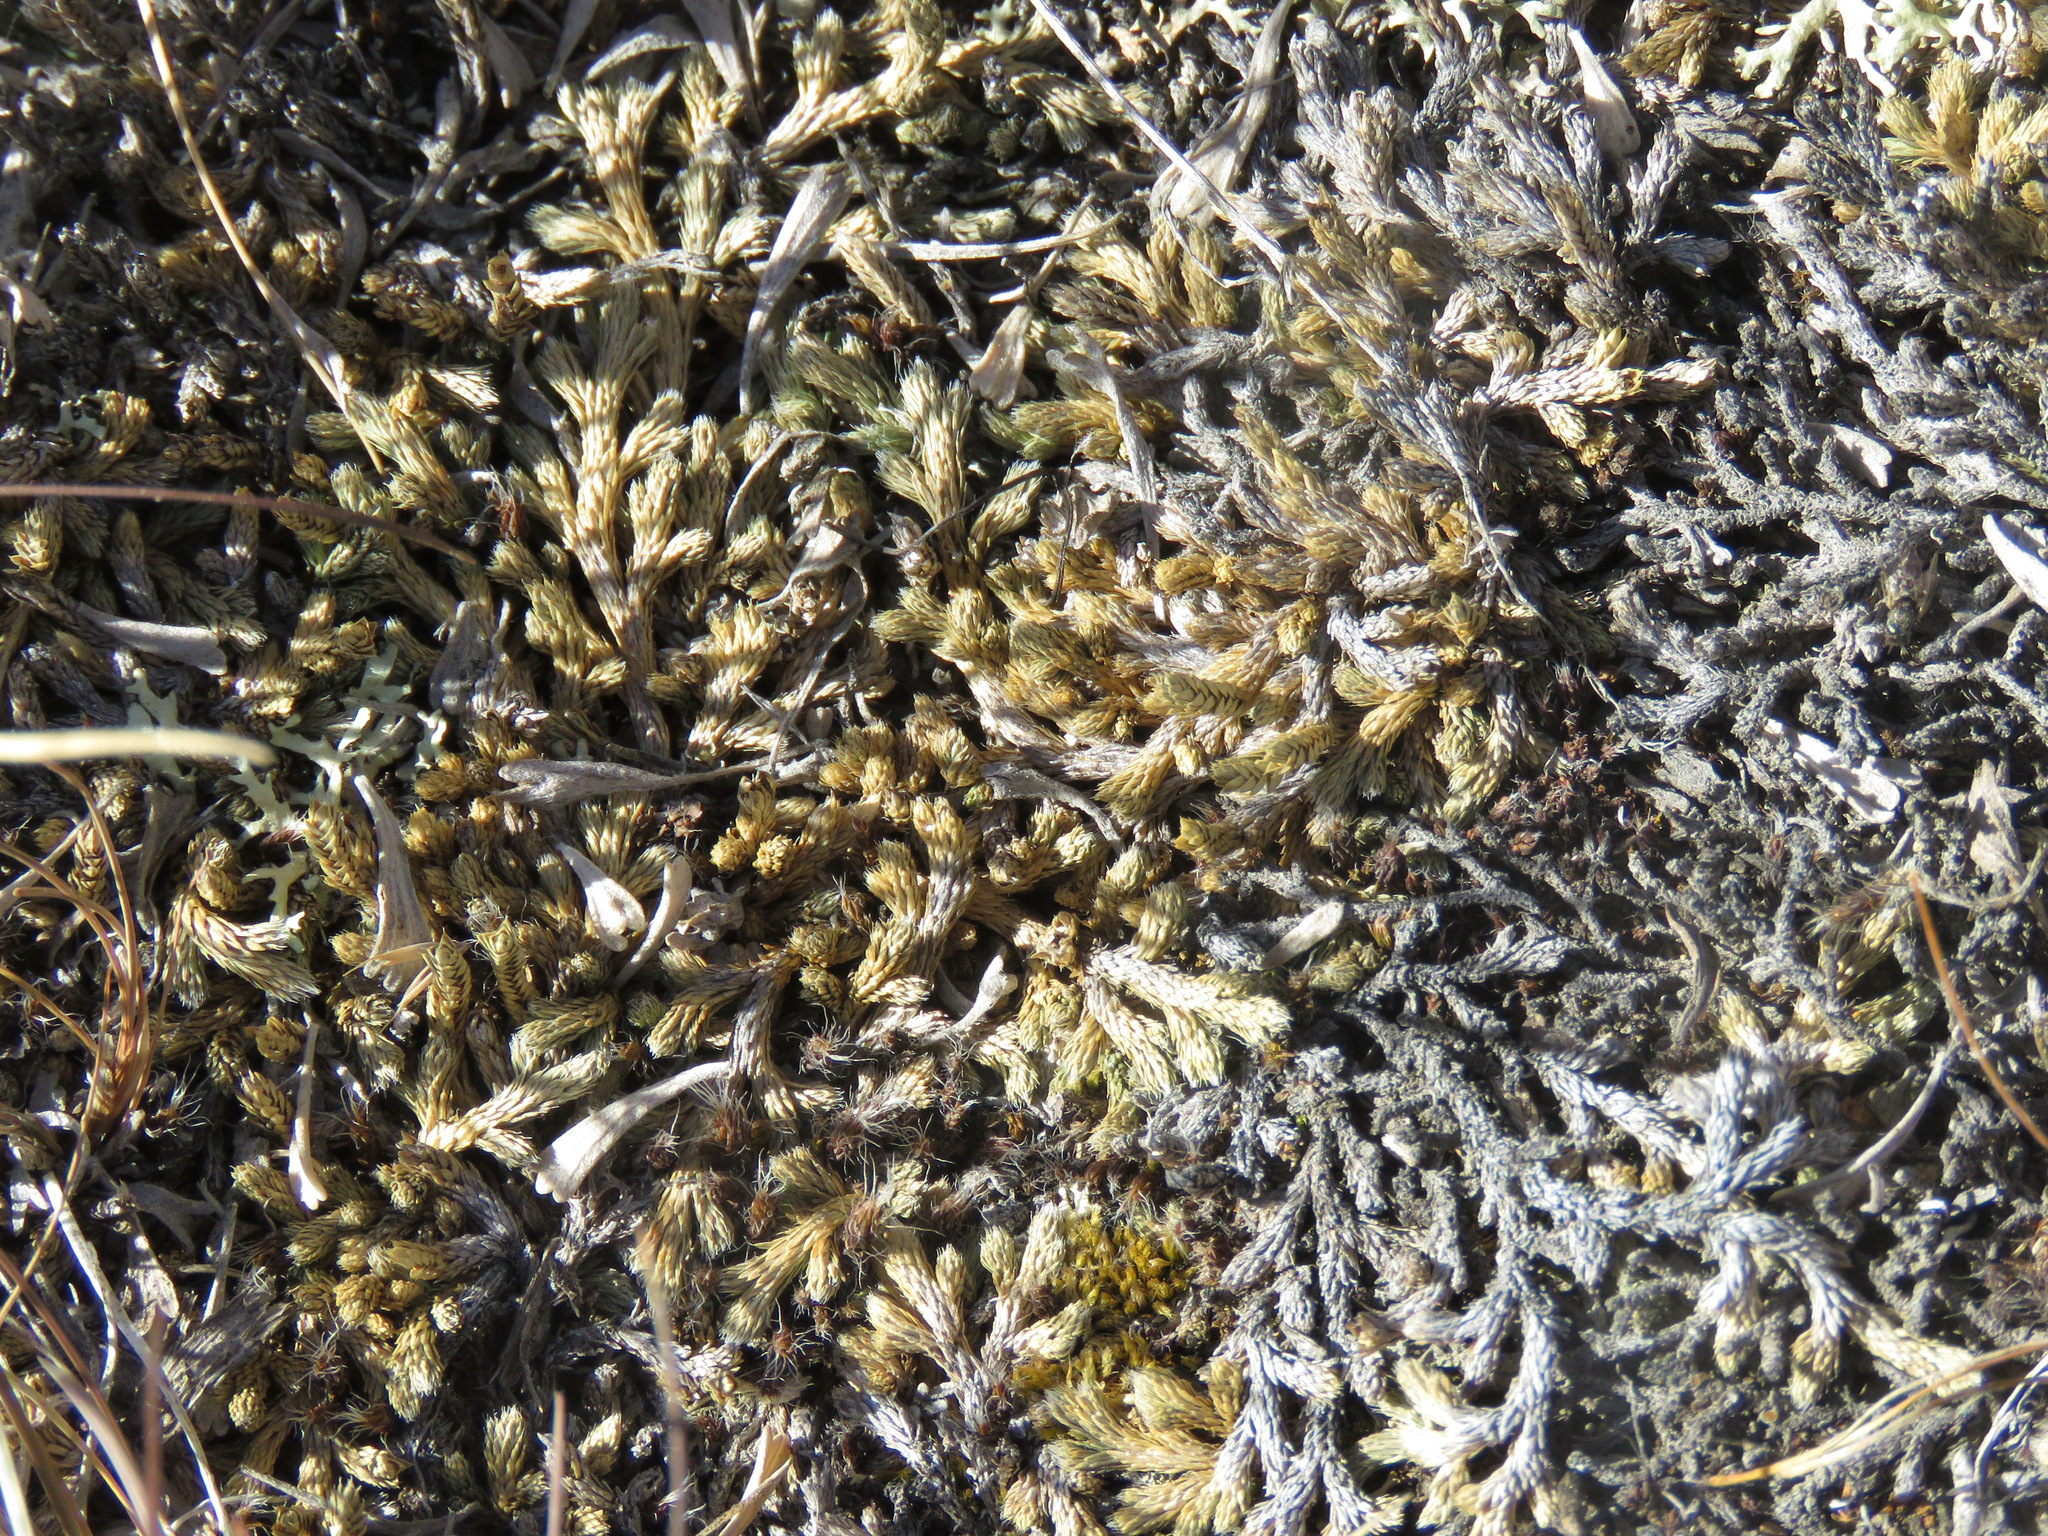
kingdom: Plantae
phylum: Tracheophyta
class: Lycopodiopsida
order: Selaginellales
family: Selaginellaceae
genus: Selaginella
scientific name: Selaginella wallacei
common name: Wallace's selaginella
